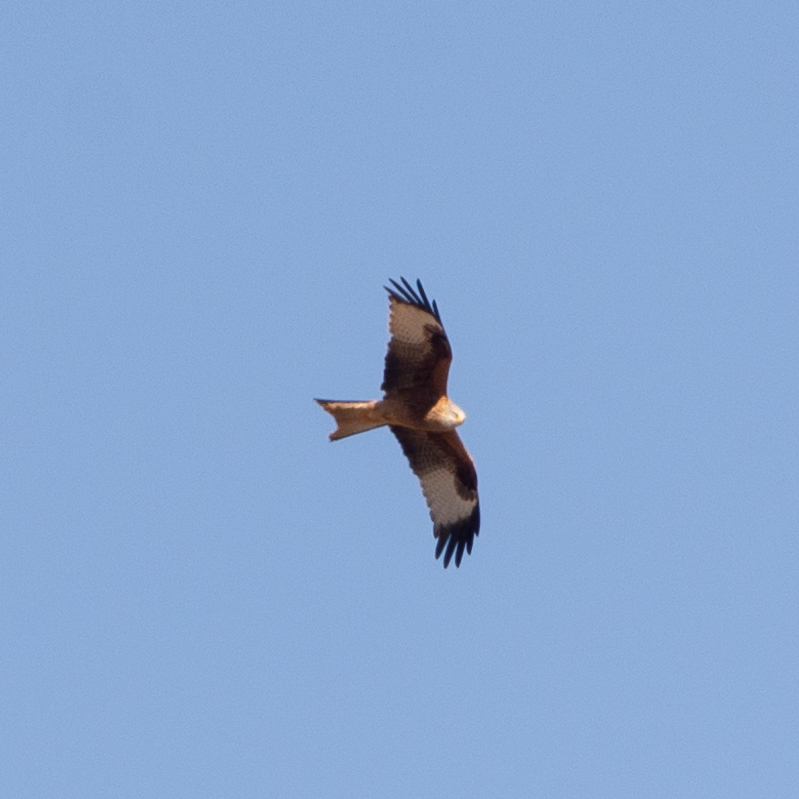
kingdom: Animalia
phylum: Chordata
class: Aves
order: Accipitriformes
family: Accipitridae
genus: Milvus
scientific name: Milvus milvus
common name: Red kite
